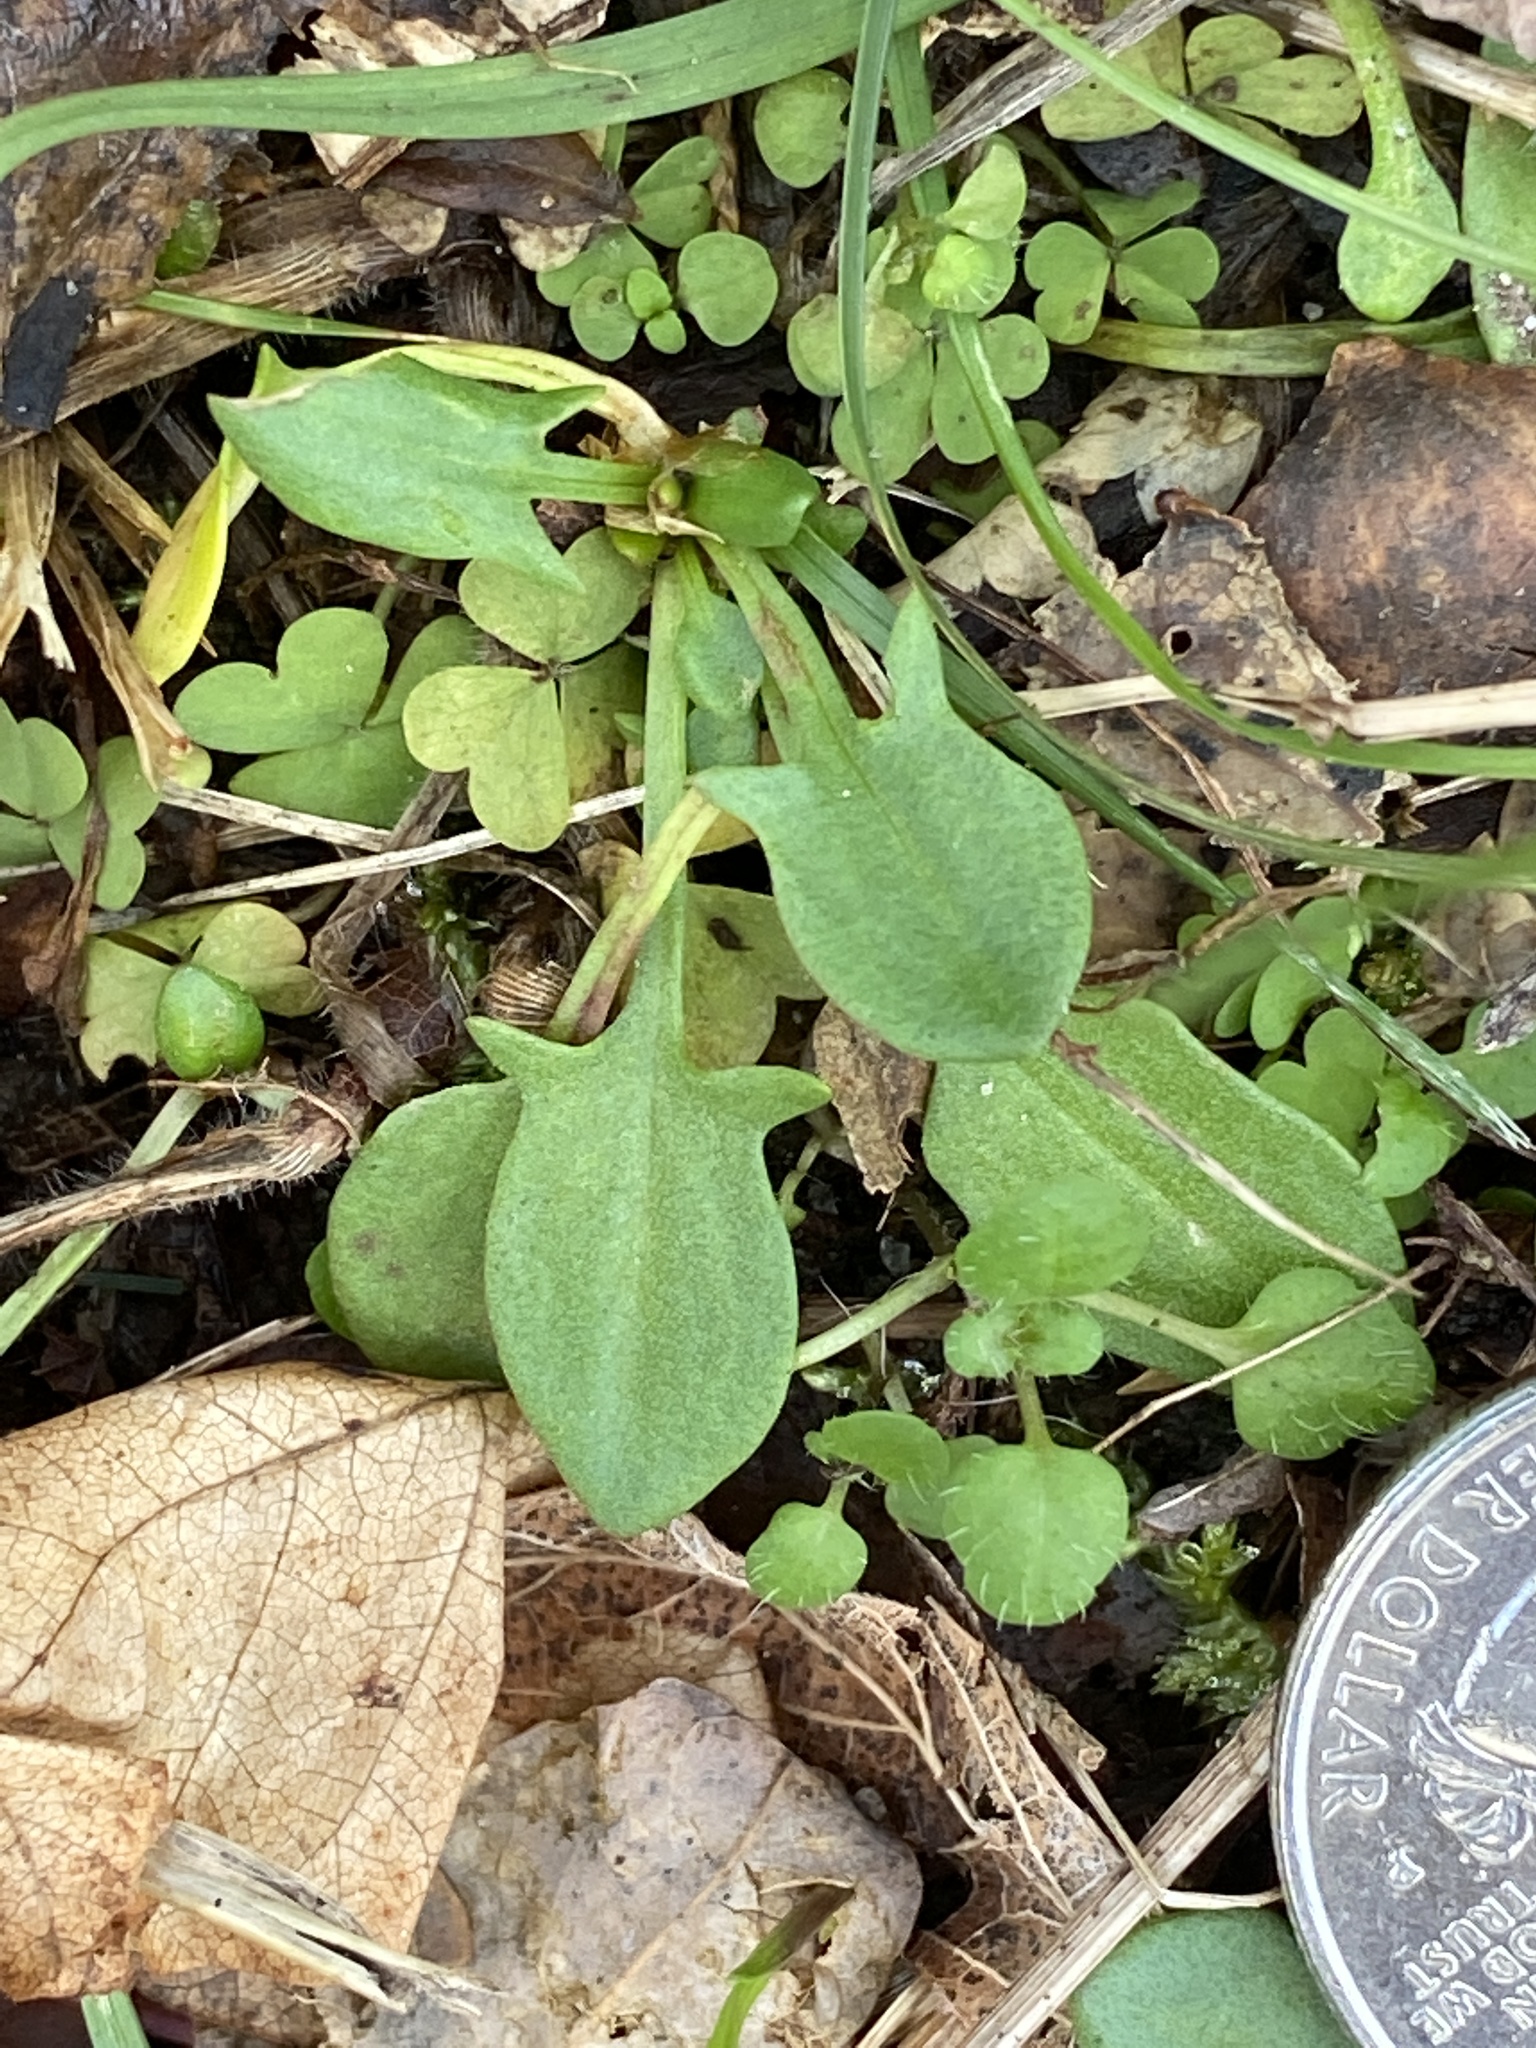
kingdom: Plantae
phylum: Tracheophyta
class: Magnoliopsida
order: Caryophyllales
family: Polygonaceae
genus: Rumex
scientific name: Rumex acetosella
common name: Common sheep sorrel
